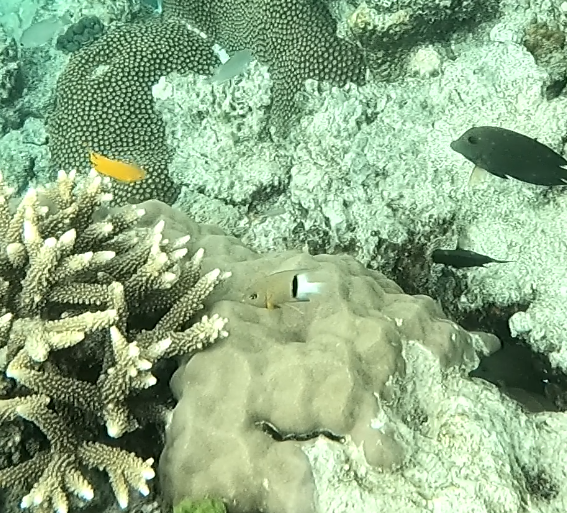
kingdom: Animalia
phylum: Chordata
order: Perciformes
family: Pomacentridae
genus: Plectroglyphidodon
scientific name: Plectroglyphidodon dickii
